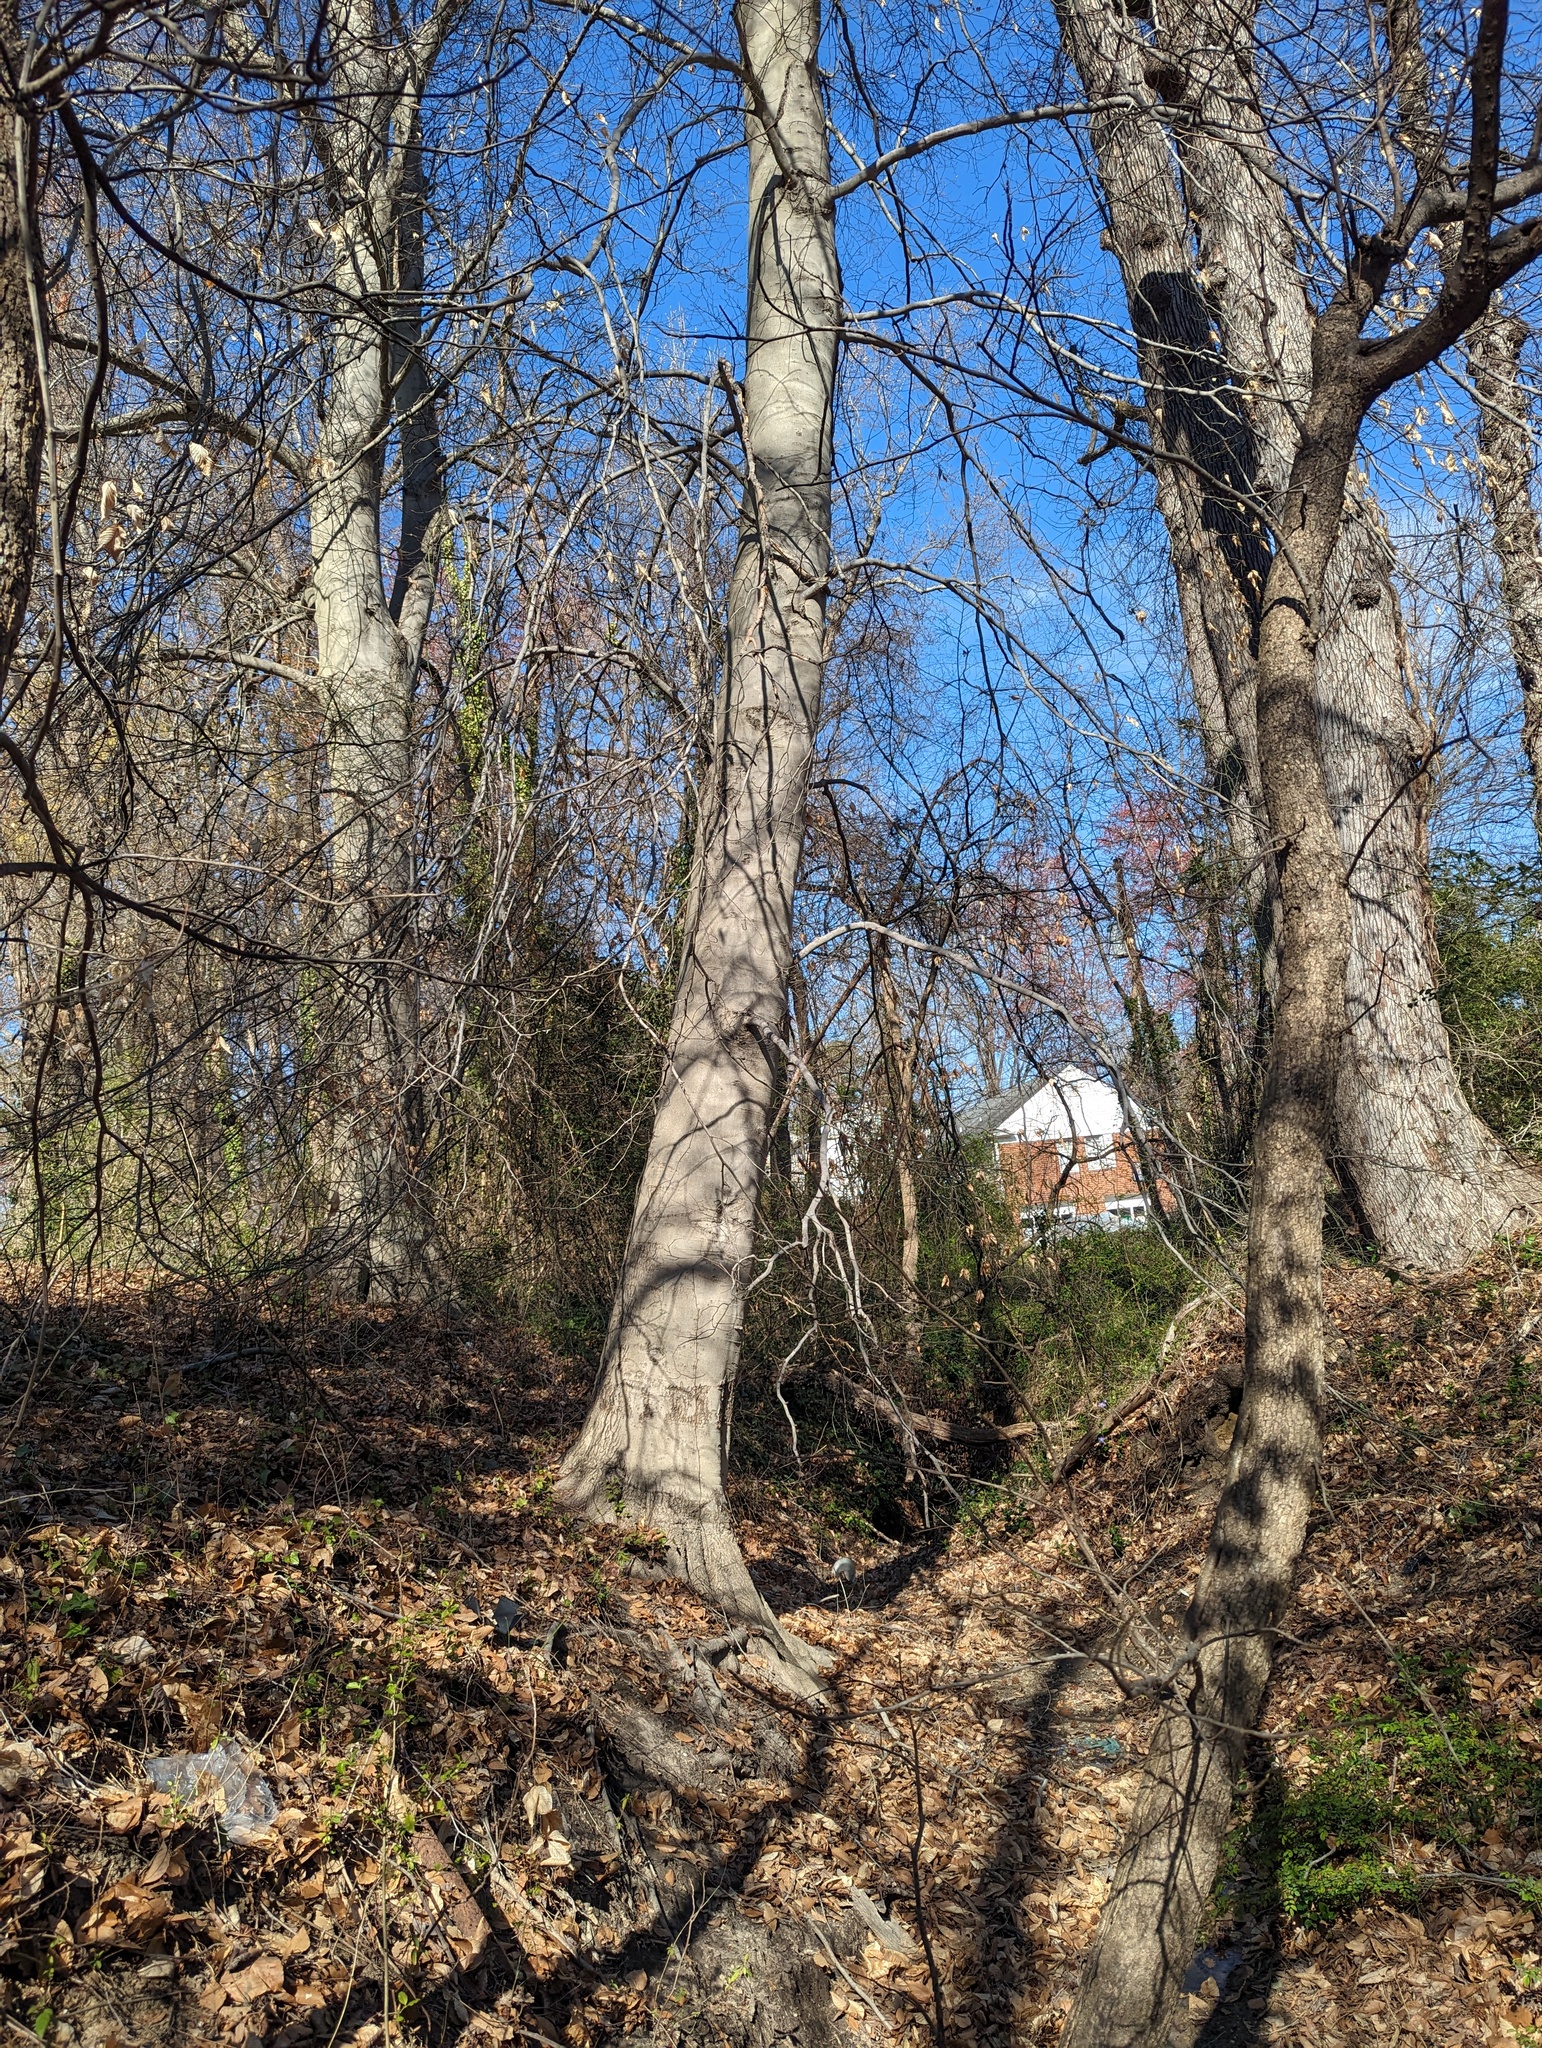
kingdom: Plantae
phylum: Tracheophyta
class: Magnoliopsida
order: Fagales
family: Fagaceae
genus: Fagus
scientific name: Fagus grandifolia
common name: American beech
